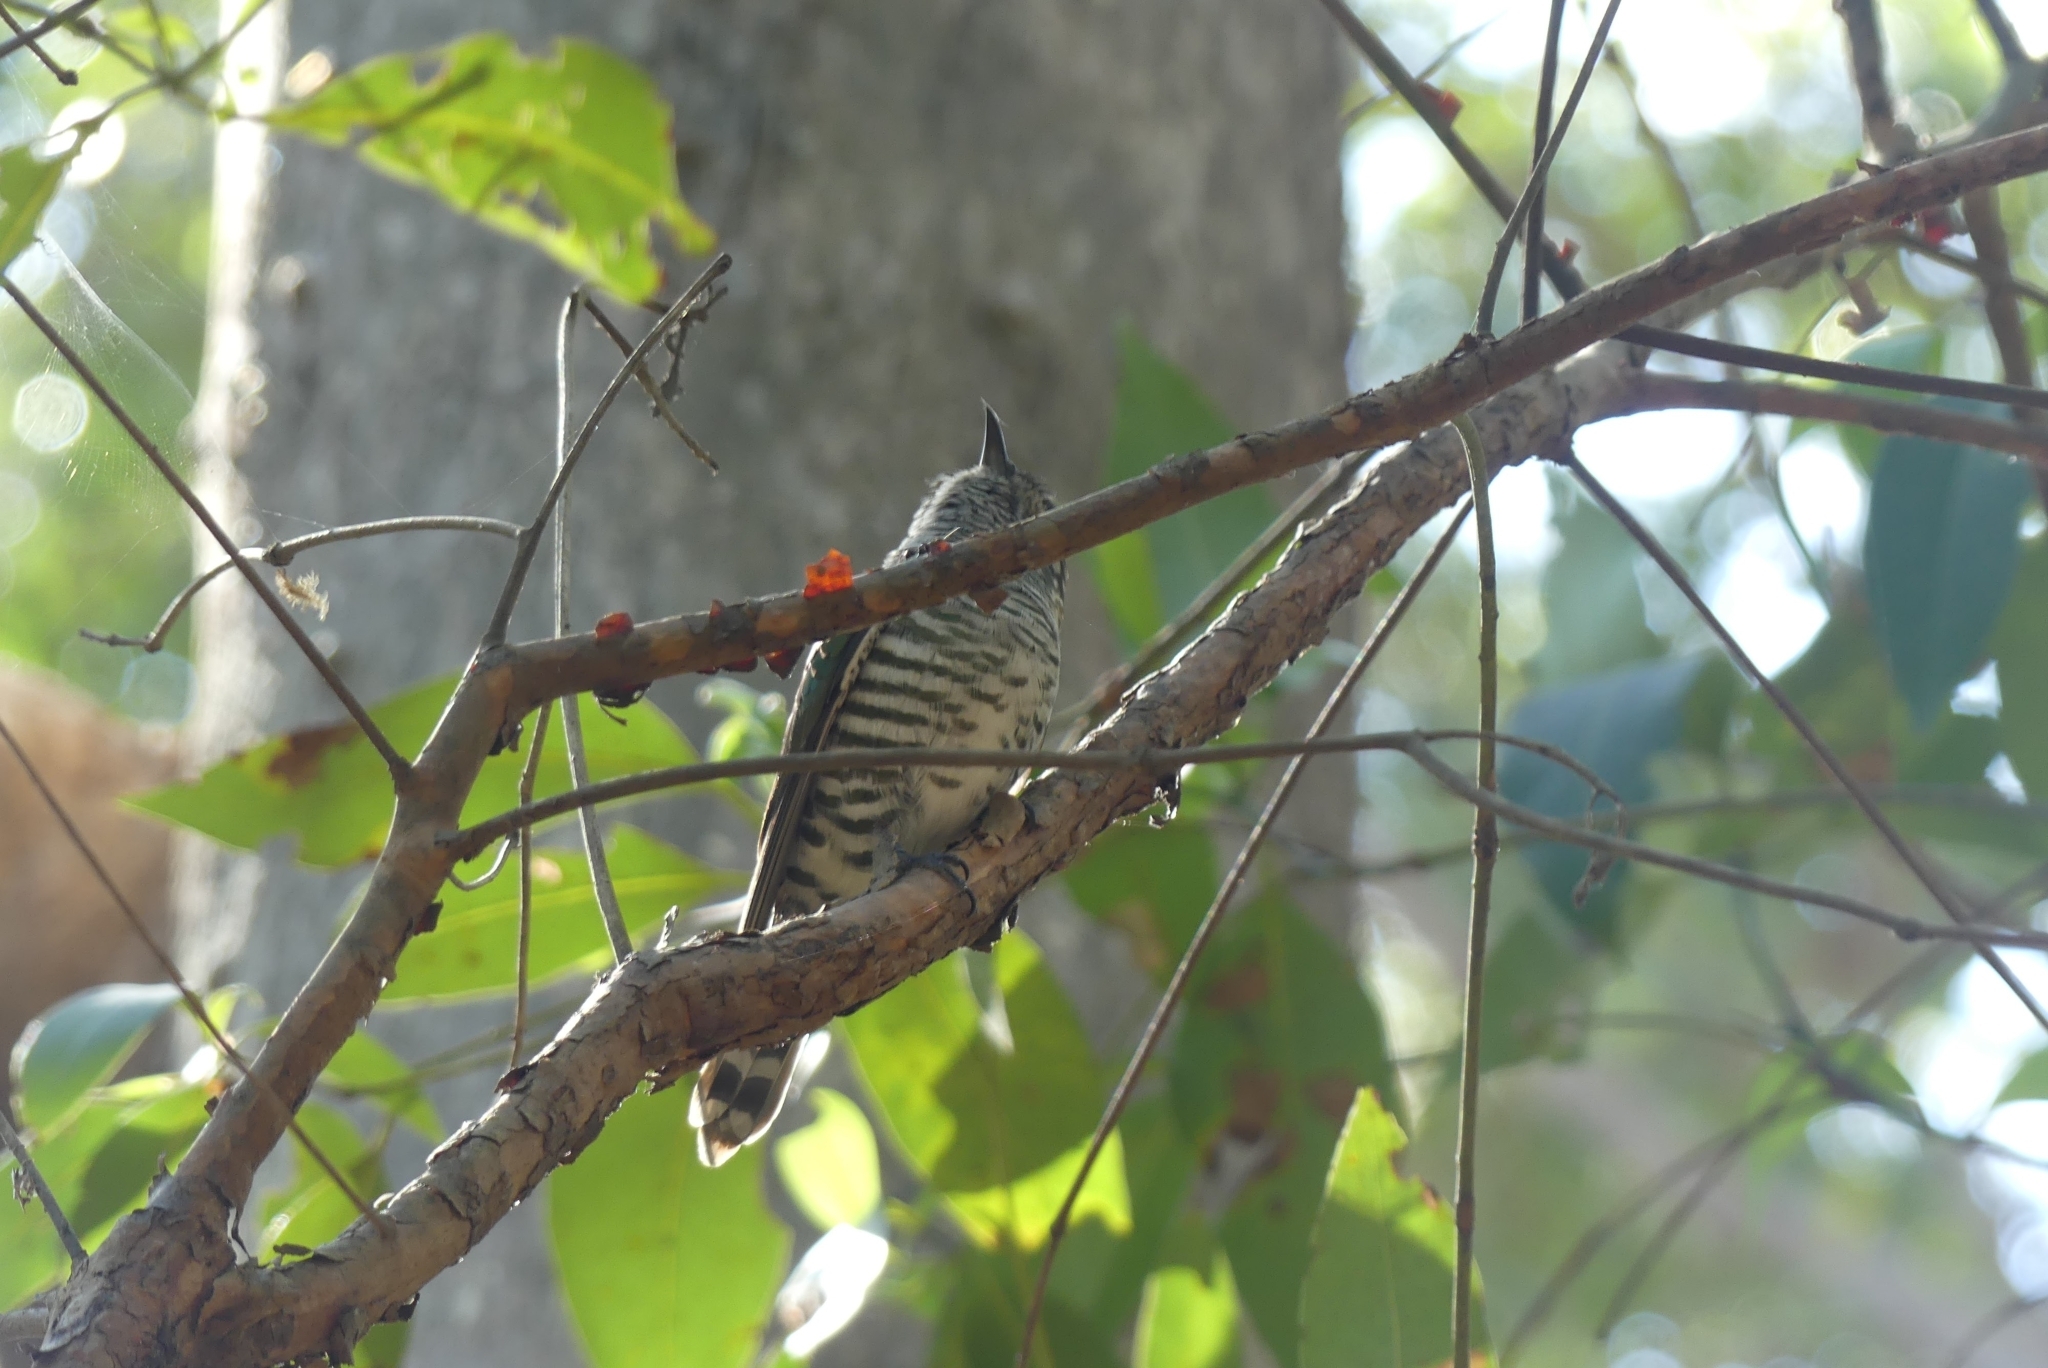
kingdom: Animalia
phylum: Chordata
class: Aves
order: Cuculiformes
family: Cuculidae
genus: Chrysococcyx
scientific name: Chrysococcyx lucidus
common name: Shining bronze cuckoo
